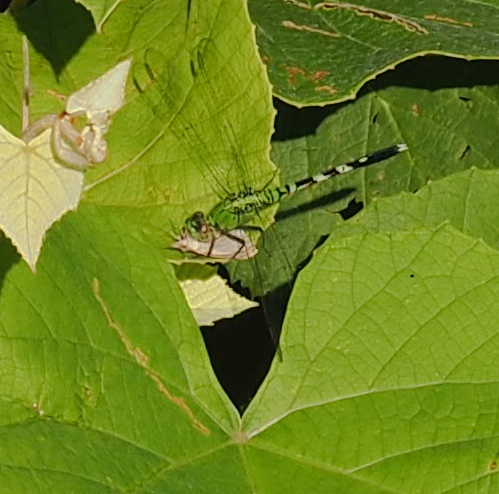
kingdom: Animalia
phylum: Arthropoda
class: Insecta
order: Odonata
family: Libellulidae
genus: Erythemis
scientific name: Erythemis simplicicollis
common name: Eastern pondhawk
